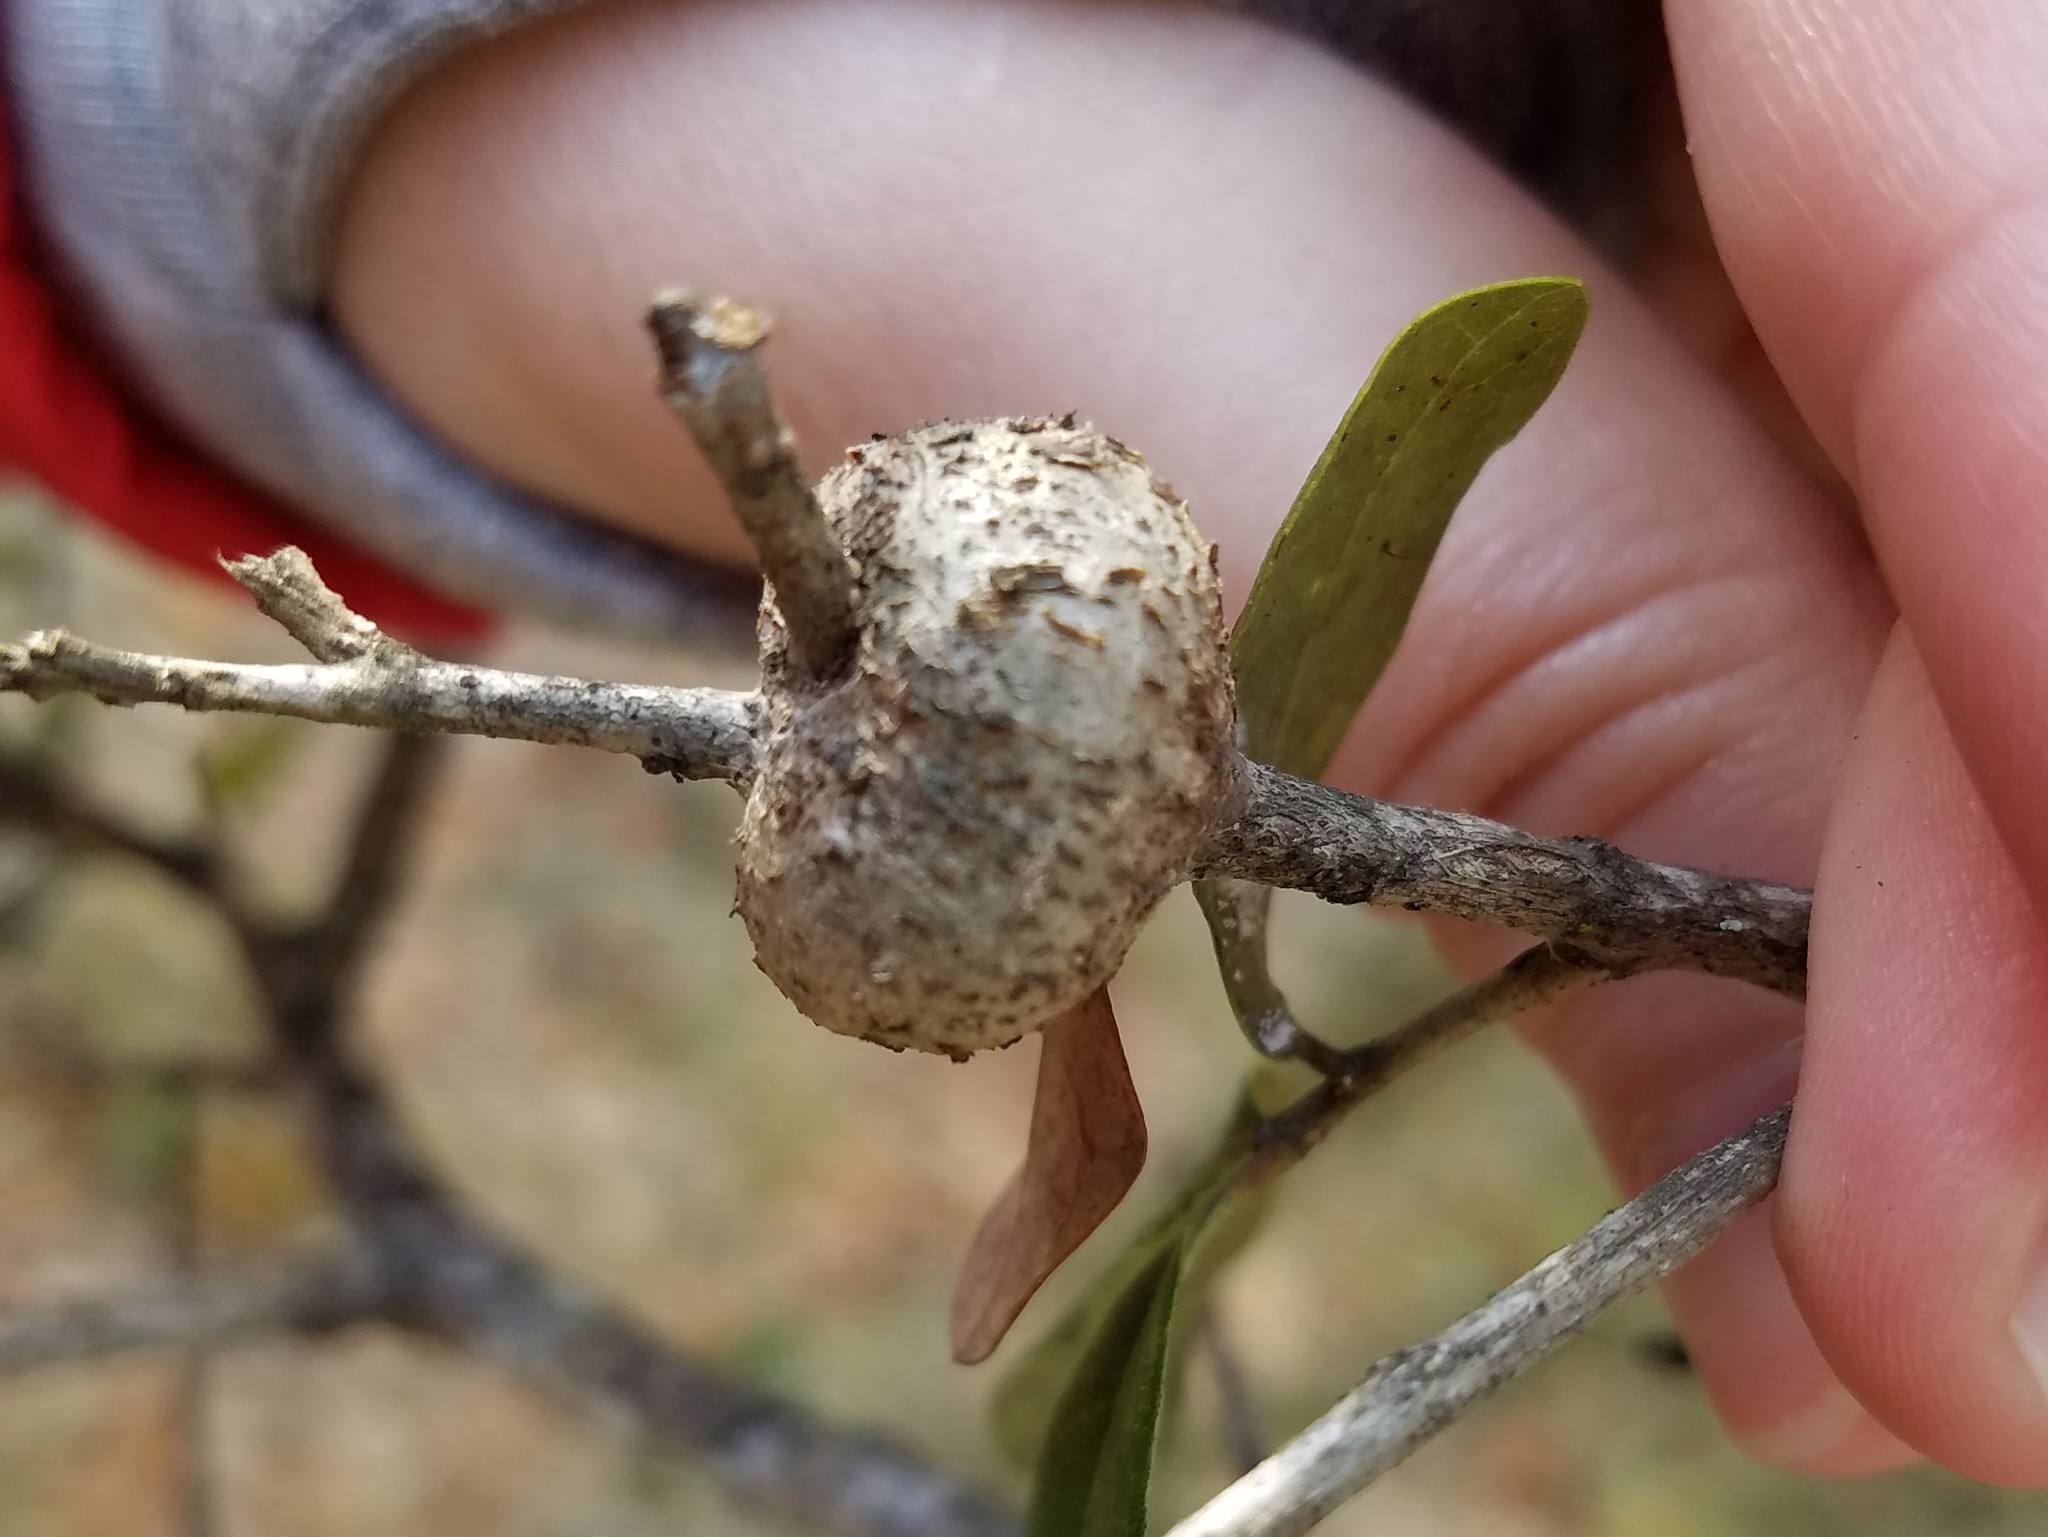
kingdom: Animalia
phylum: Arthropoda
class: Insecta
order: Hymenoptera
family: Cynipidae
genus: Callirhytis
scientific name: Callirhytis
